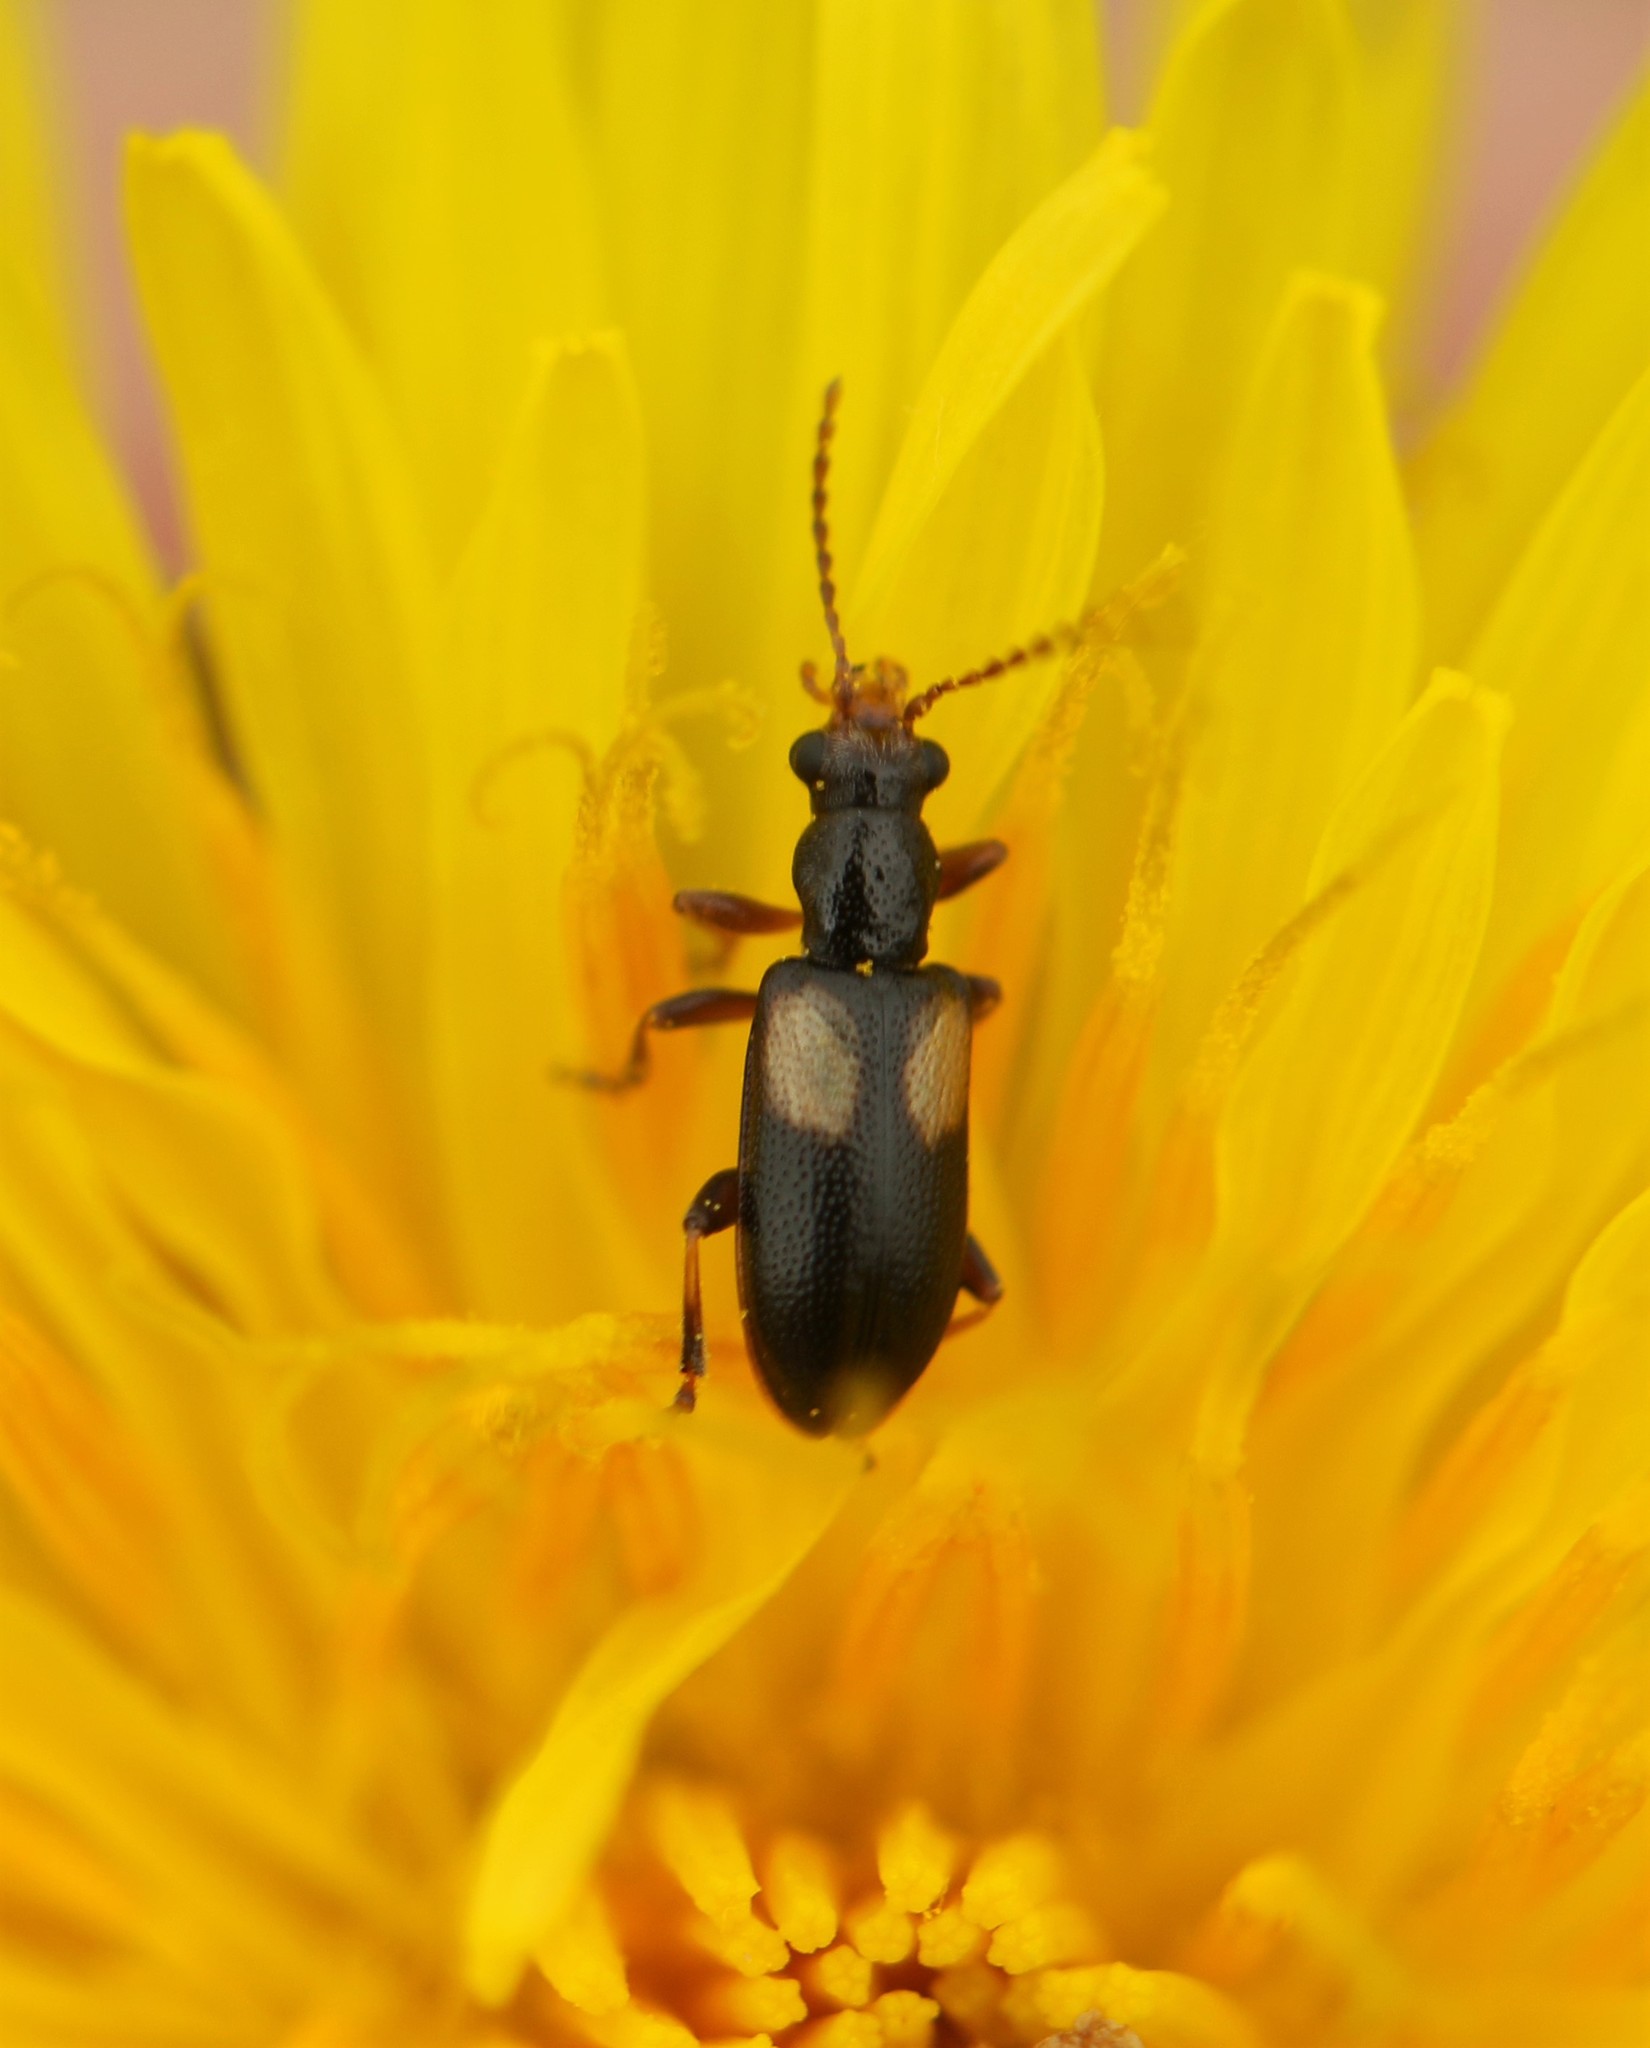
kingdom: Animalia
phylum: Arthropoda
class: Insecta
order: Coleoptera
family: Orsodacnidae
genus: Orsodacne
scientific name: Orsodacne atra
